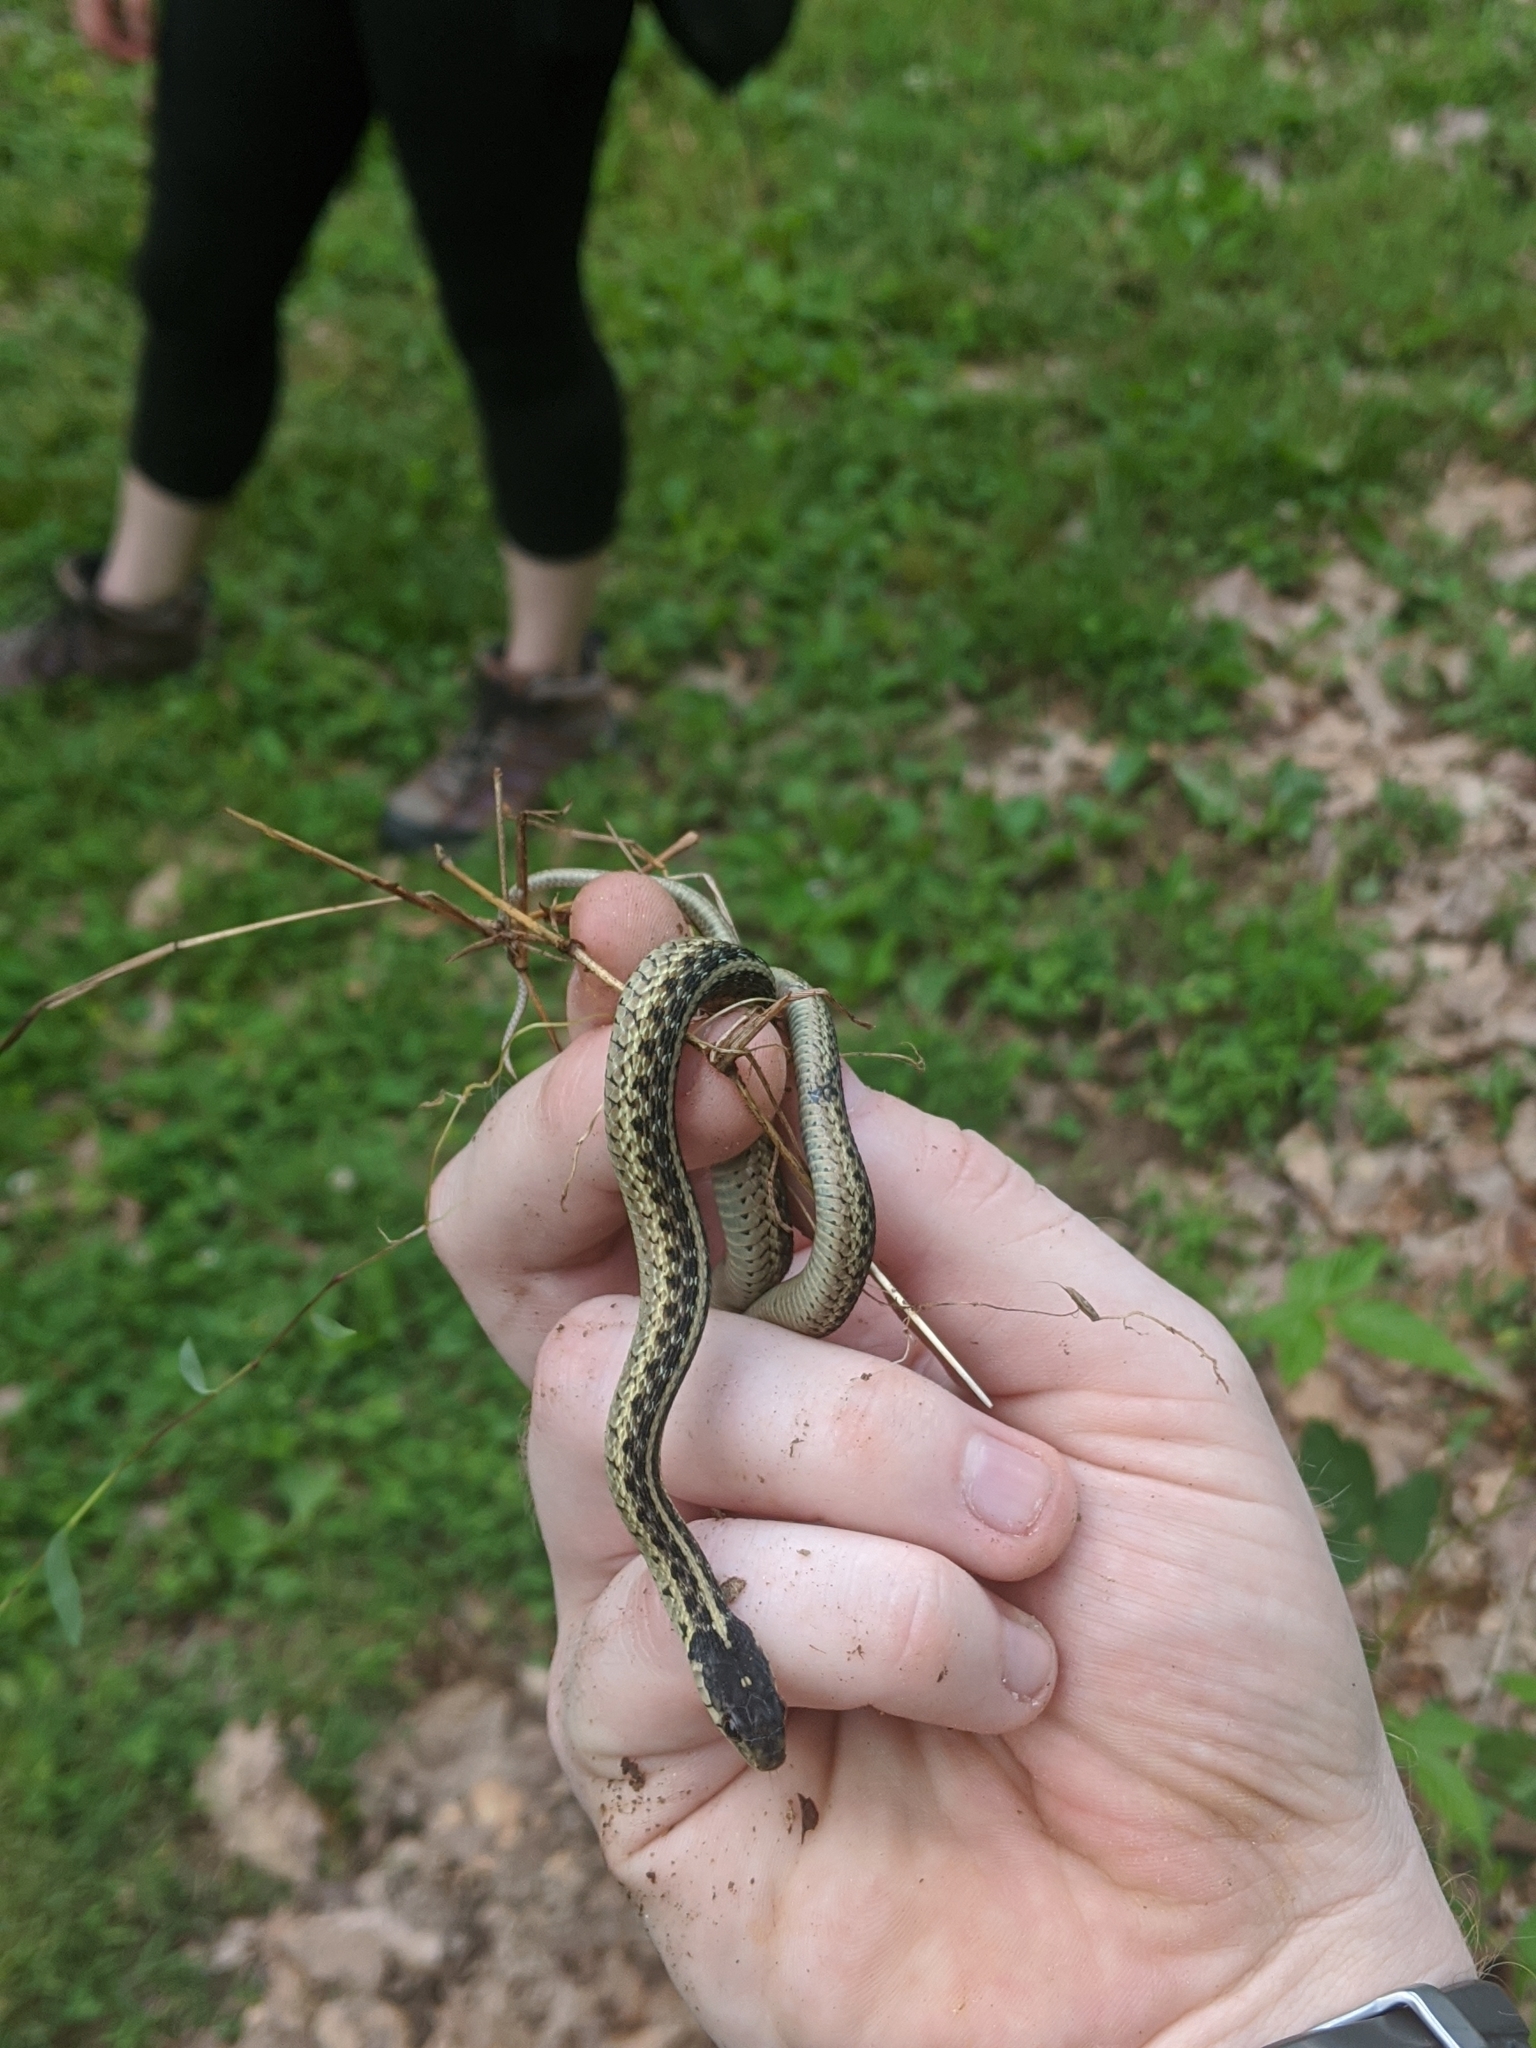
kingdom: Animalia
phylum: Chordata
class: Squamata
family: Colubridae
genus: Thamnophis
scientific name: Thamnophis sirtalis
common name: Common garter snake
